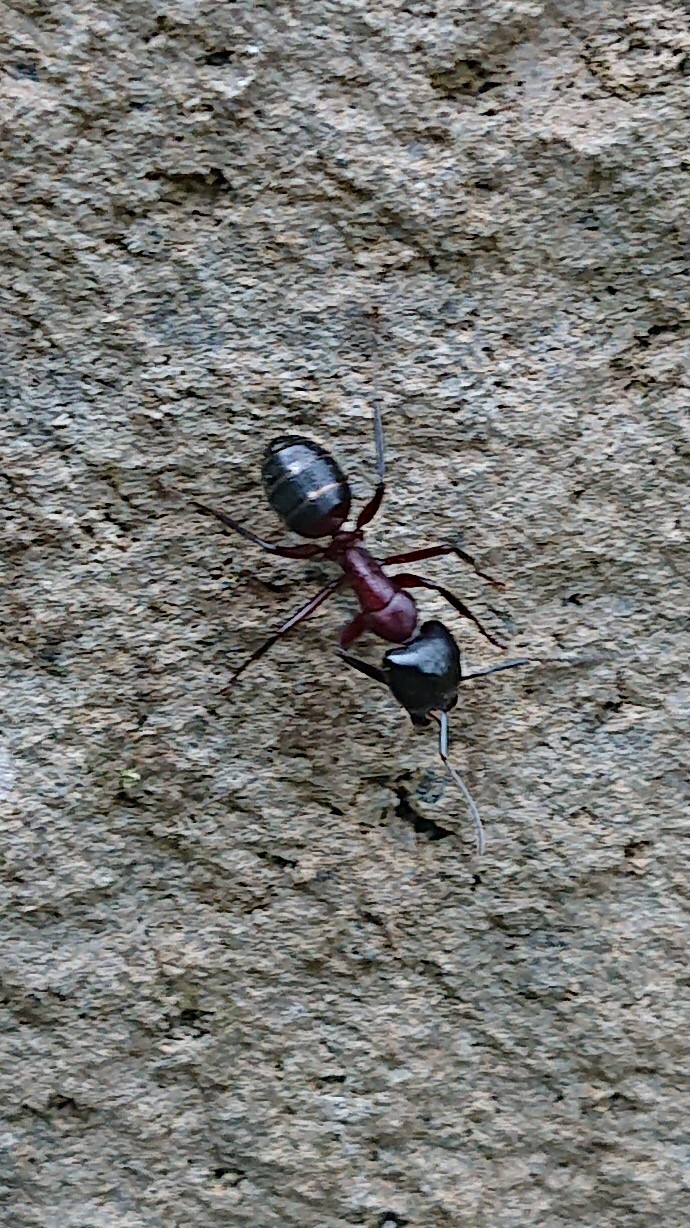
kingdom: Animalia
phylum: Arthropoda
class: Insecta
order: Hymenoptera
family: Formicidae
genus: Camponotus
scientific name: Camponotus ligniperdus
